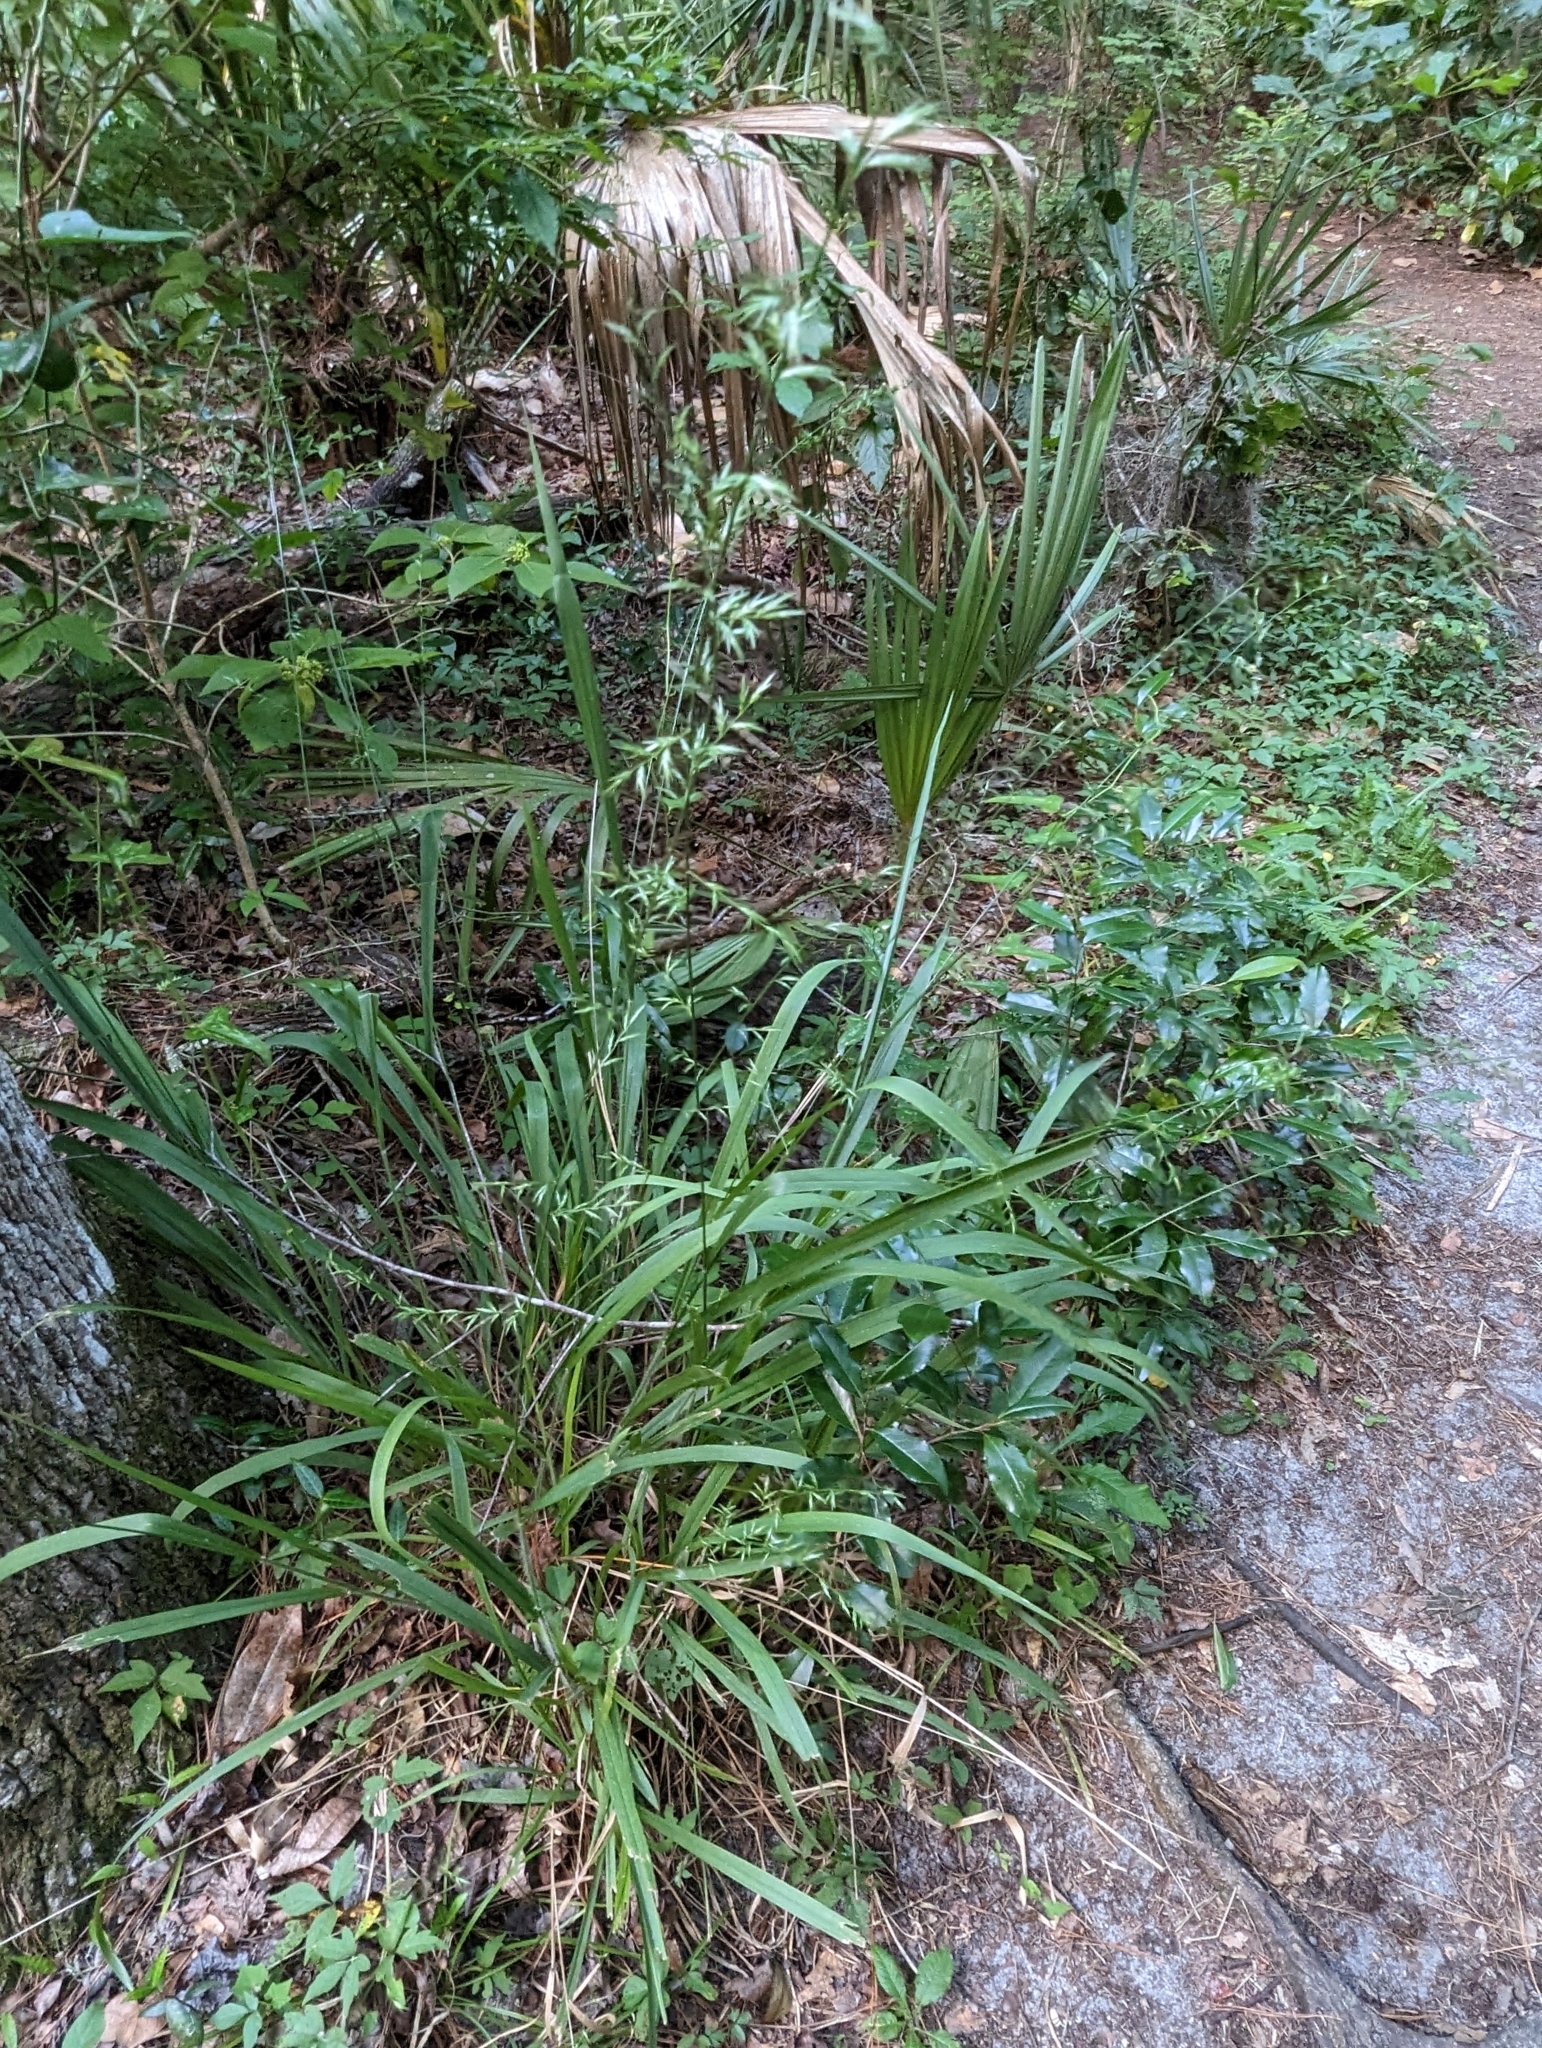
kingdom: Plantae
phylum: Tracheophyta
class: Liliopsida
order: Poales
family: Poaceae
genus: Chasmanthium
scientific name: Chasmanthium laxum
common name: Slender chasmanthium
